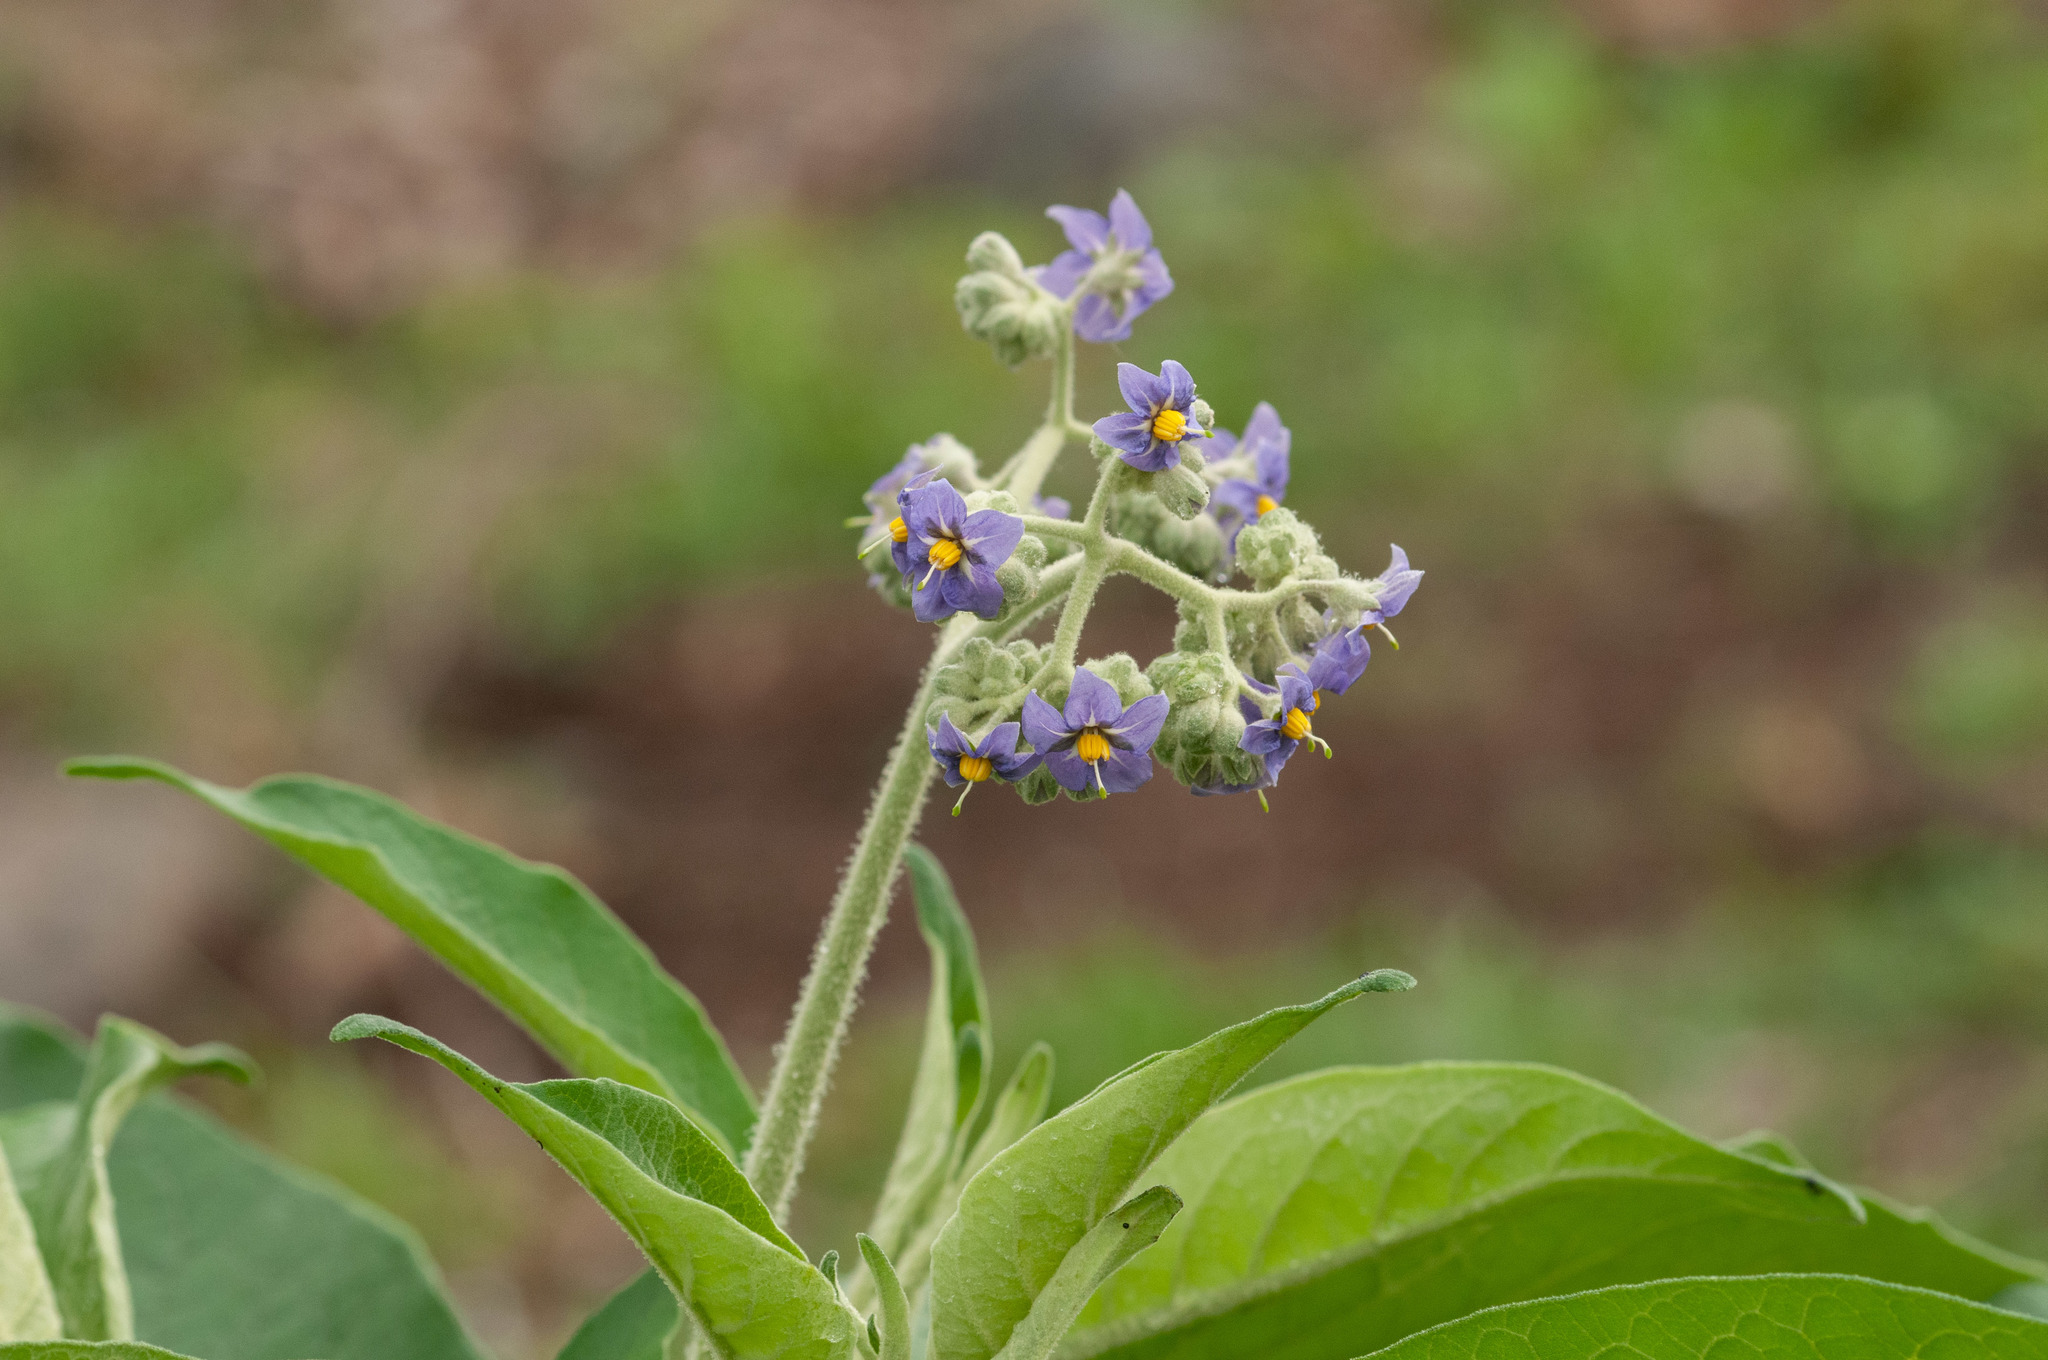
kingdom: Plantae
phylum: Tracheophyta
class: Magnoliopsida
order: Solanales
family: Solanaceae
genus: Solanum
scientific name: Solanum mauritianum
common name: Earleaf nightshade
